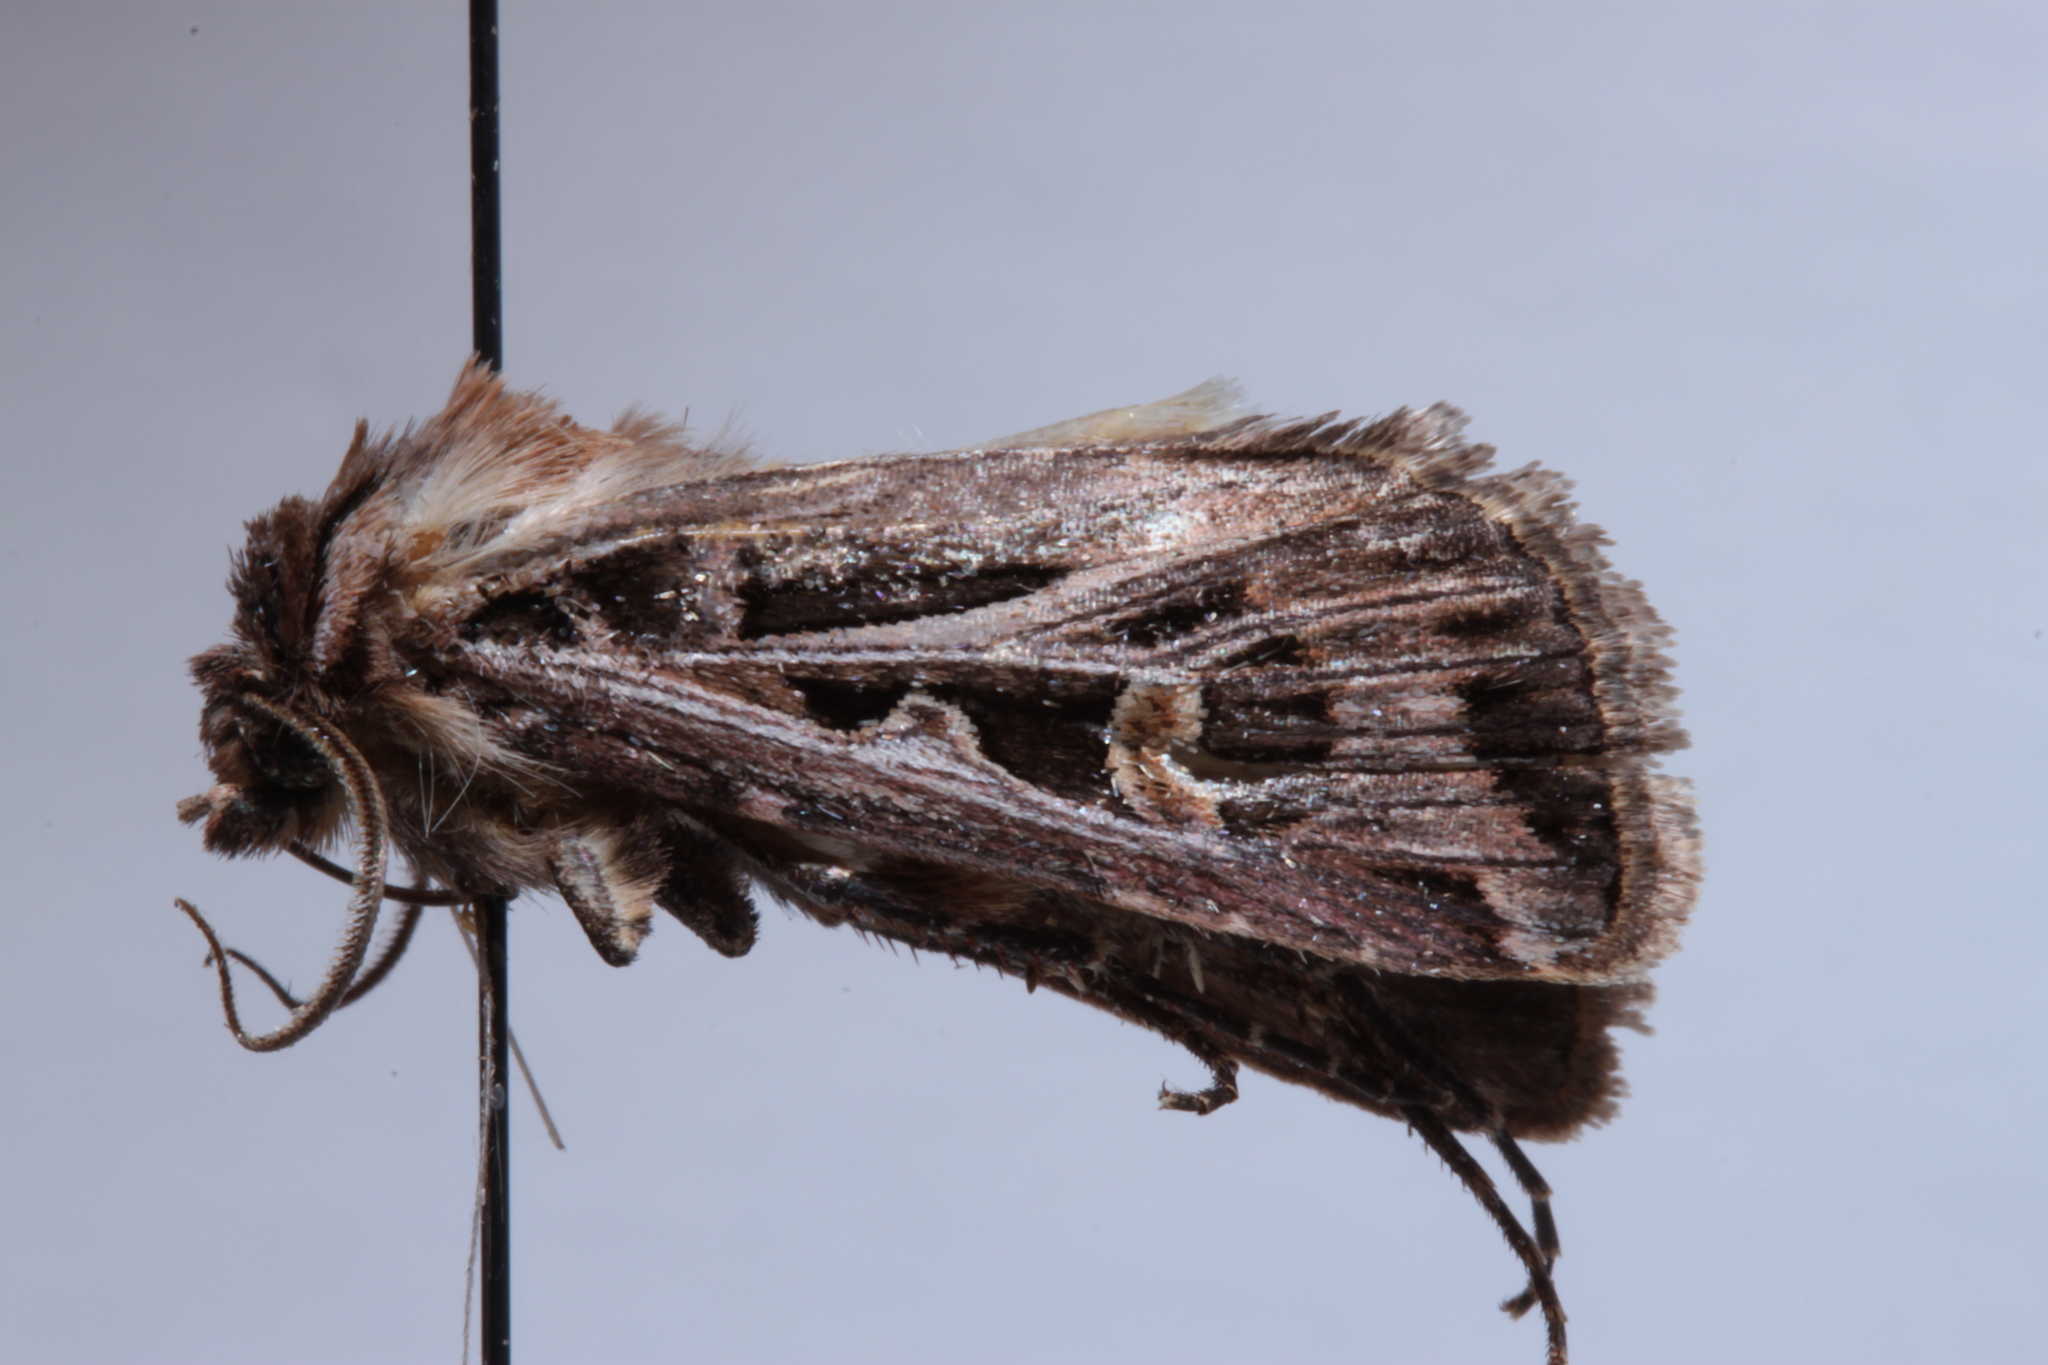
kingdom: Animalia
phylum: Arthropoda
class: Insecta
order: Lepidoptera
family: Noctuidae
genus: Feltia
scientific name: Feltia jaculifera
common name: Dingy cutworm moth
